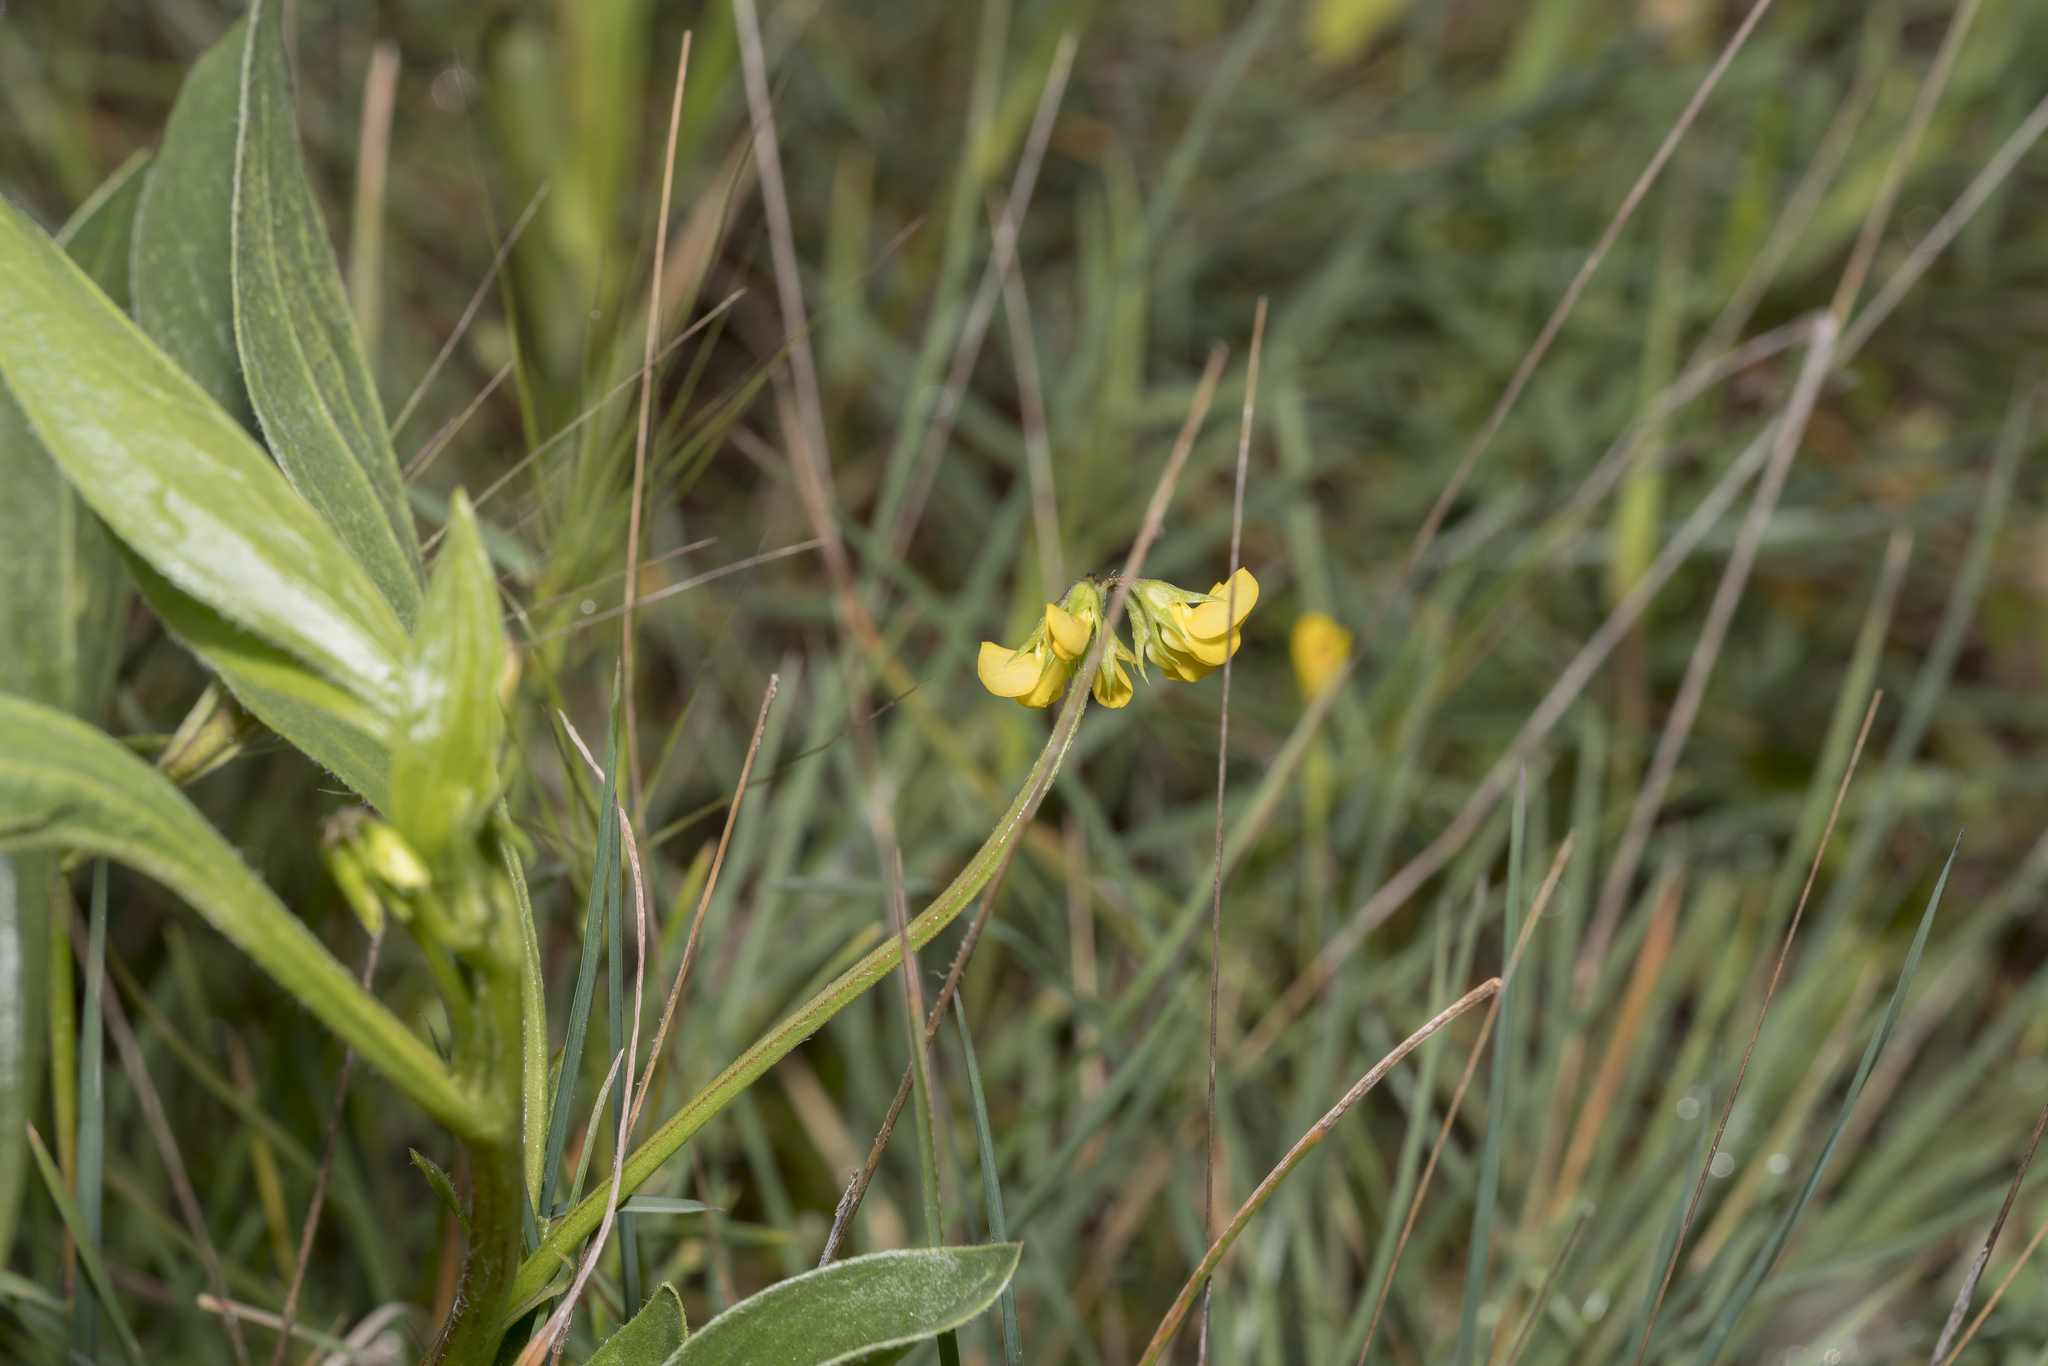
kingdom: Plantae
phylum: Tracheophyta
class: Magnoliopsida
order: Fabales
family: Fabaceae
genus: Scorpiurus
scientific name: Scorpiurus muricatus
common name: Caterpillar-plant
